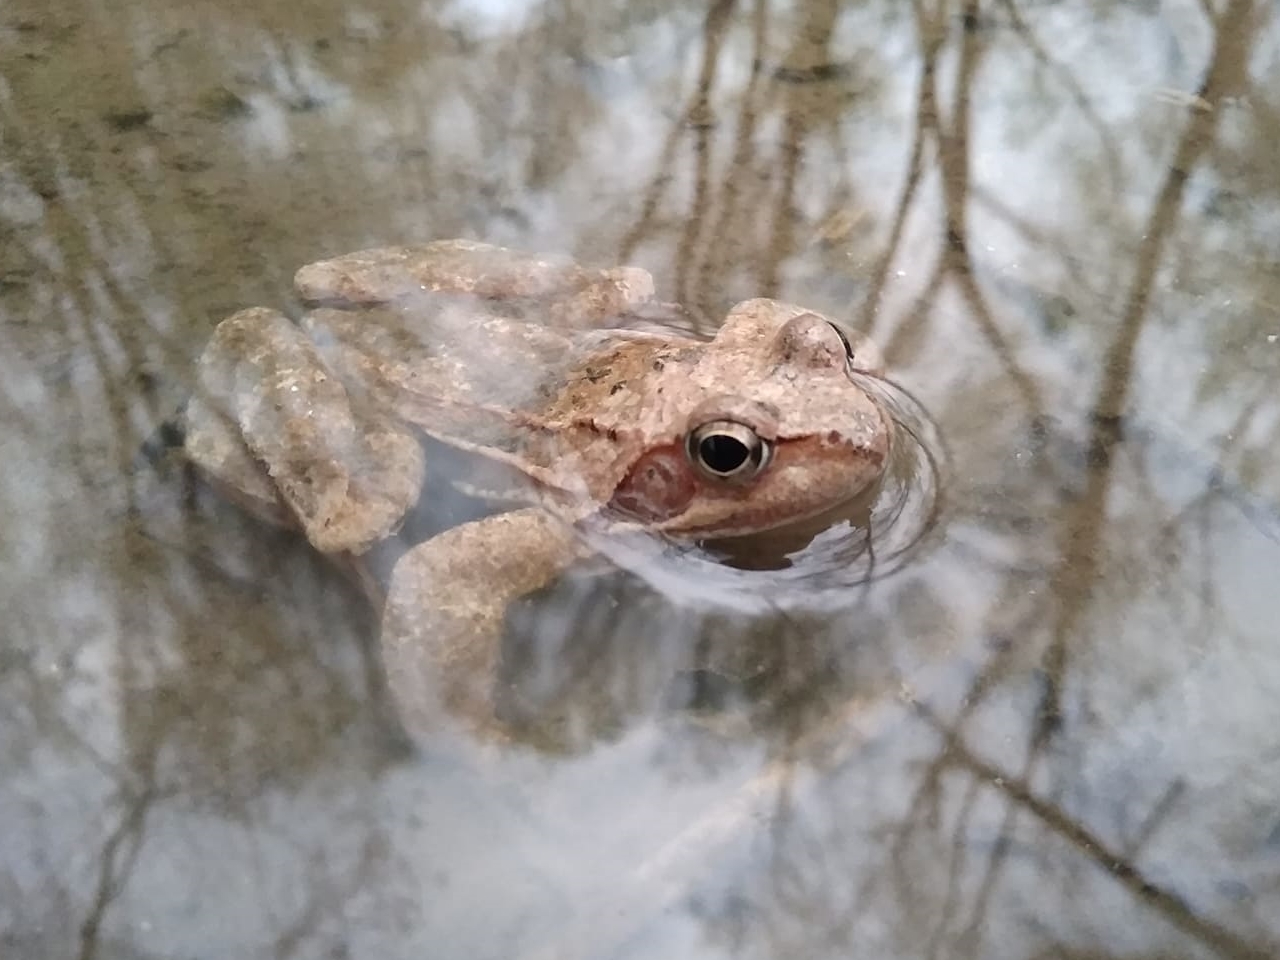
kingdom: Animalia
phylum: Chordata
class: Amphibia
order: Anura
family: Ranidae
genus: Rana
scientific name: Rana temporaria
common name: Common frog
